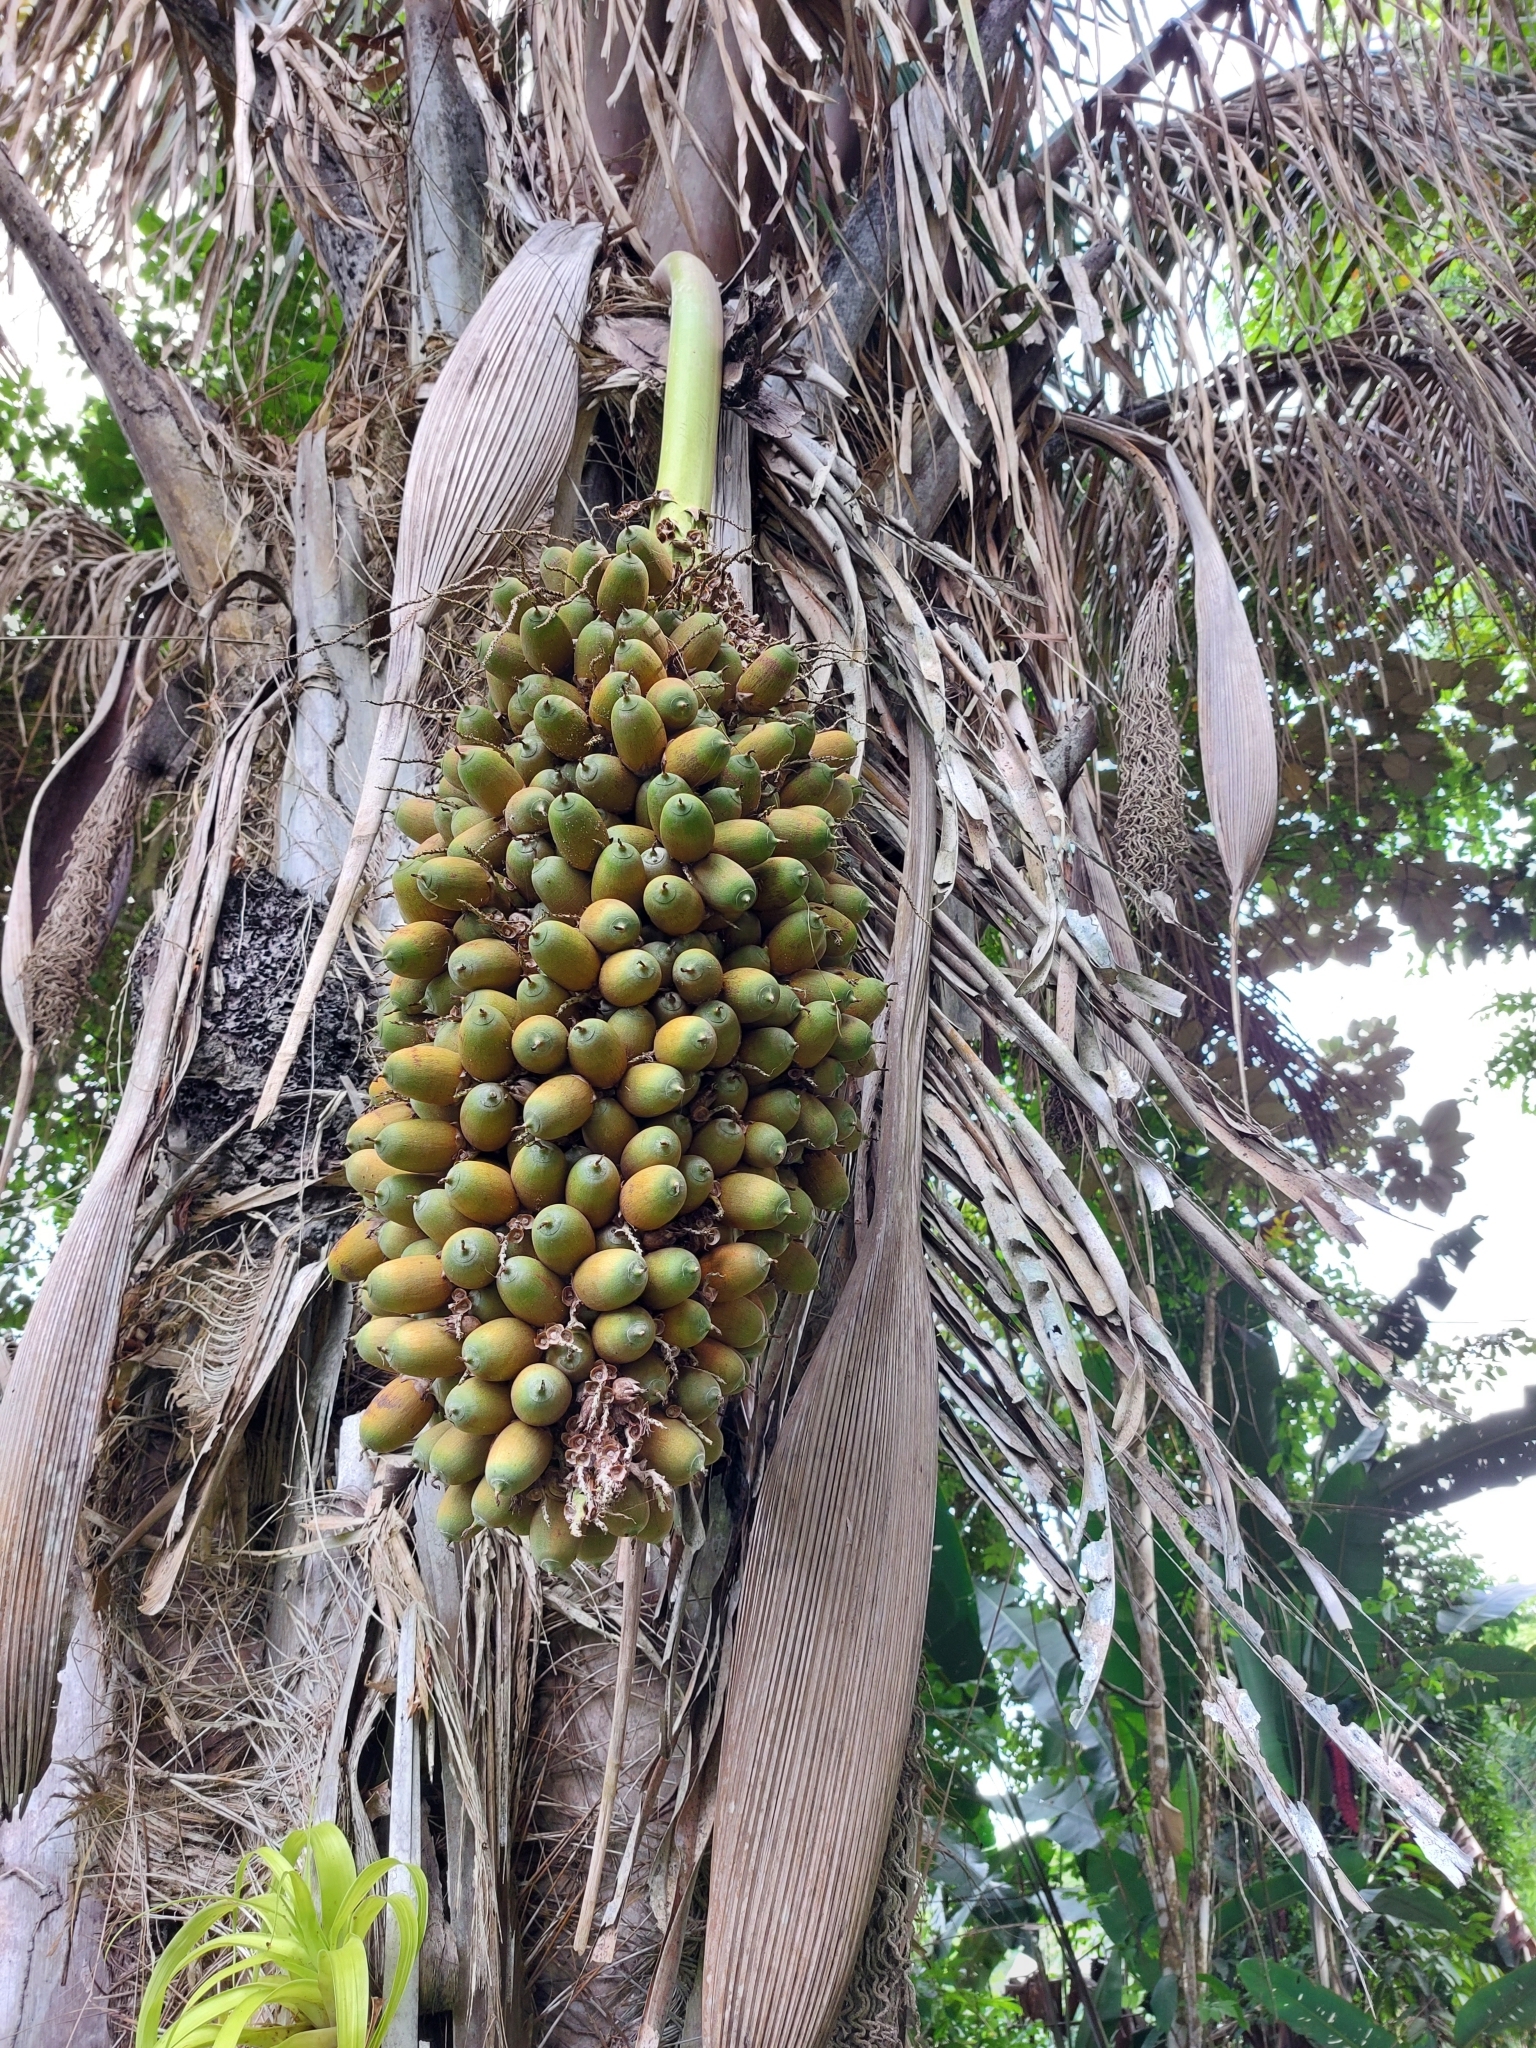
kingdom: Plantae
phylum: Tracheophyta
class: Liliopsida
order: Arecales
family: Arecaceae
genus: Attalea
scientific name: Attalea butyracea
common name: Kuakish
